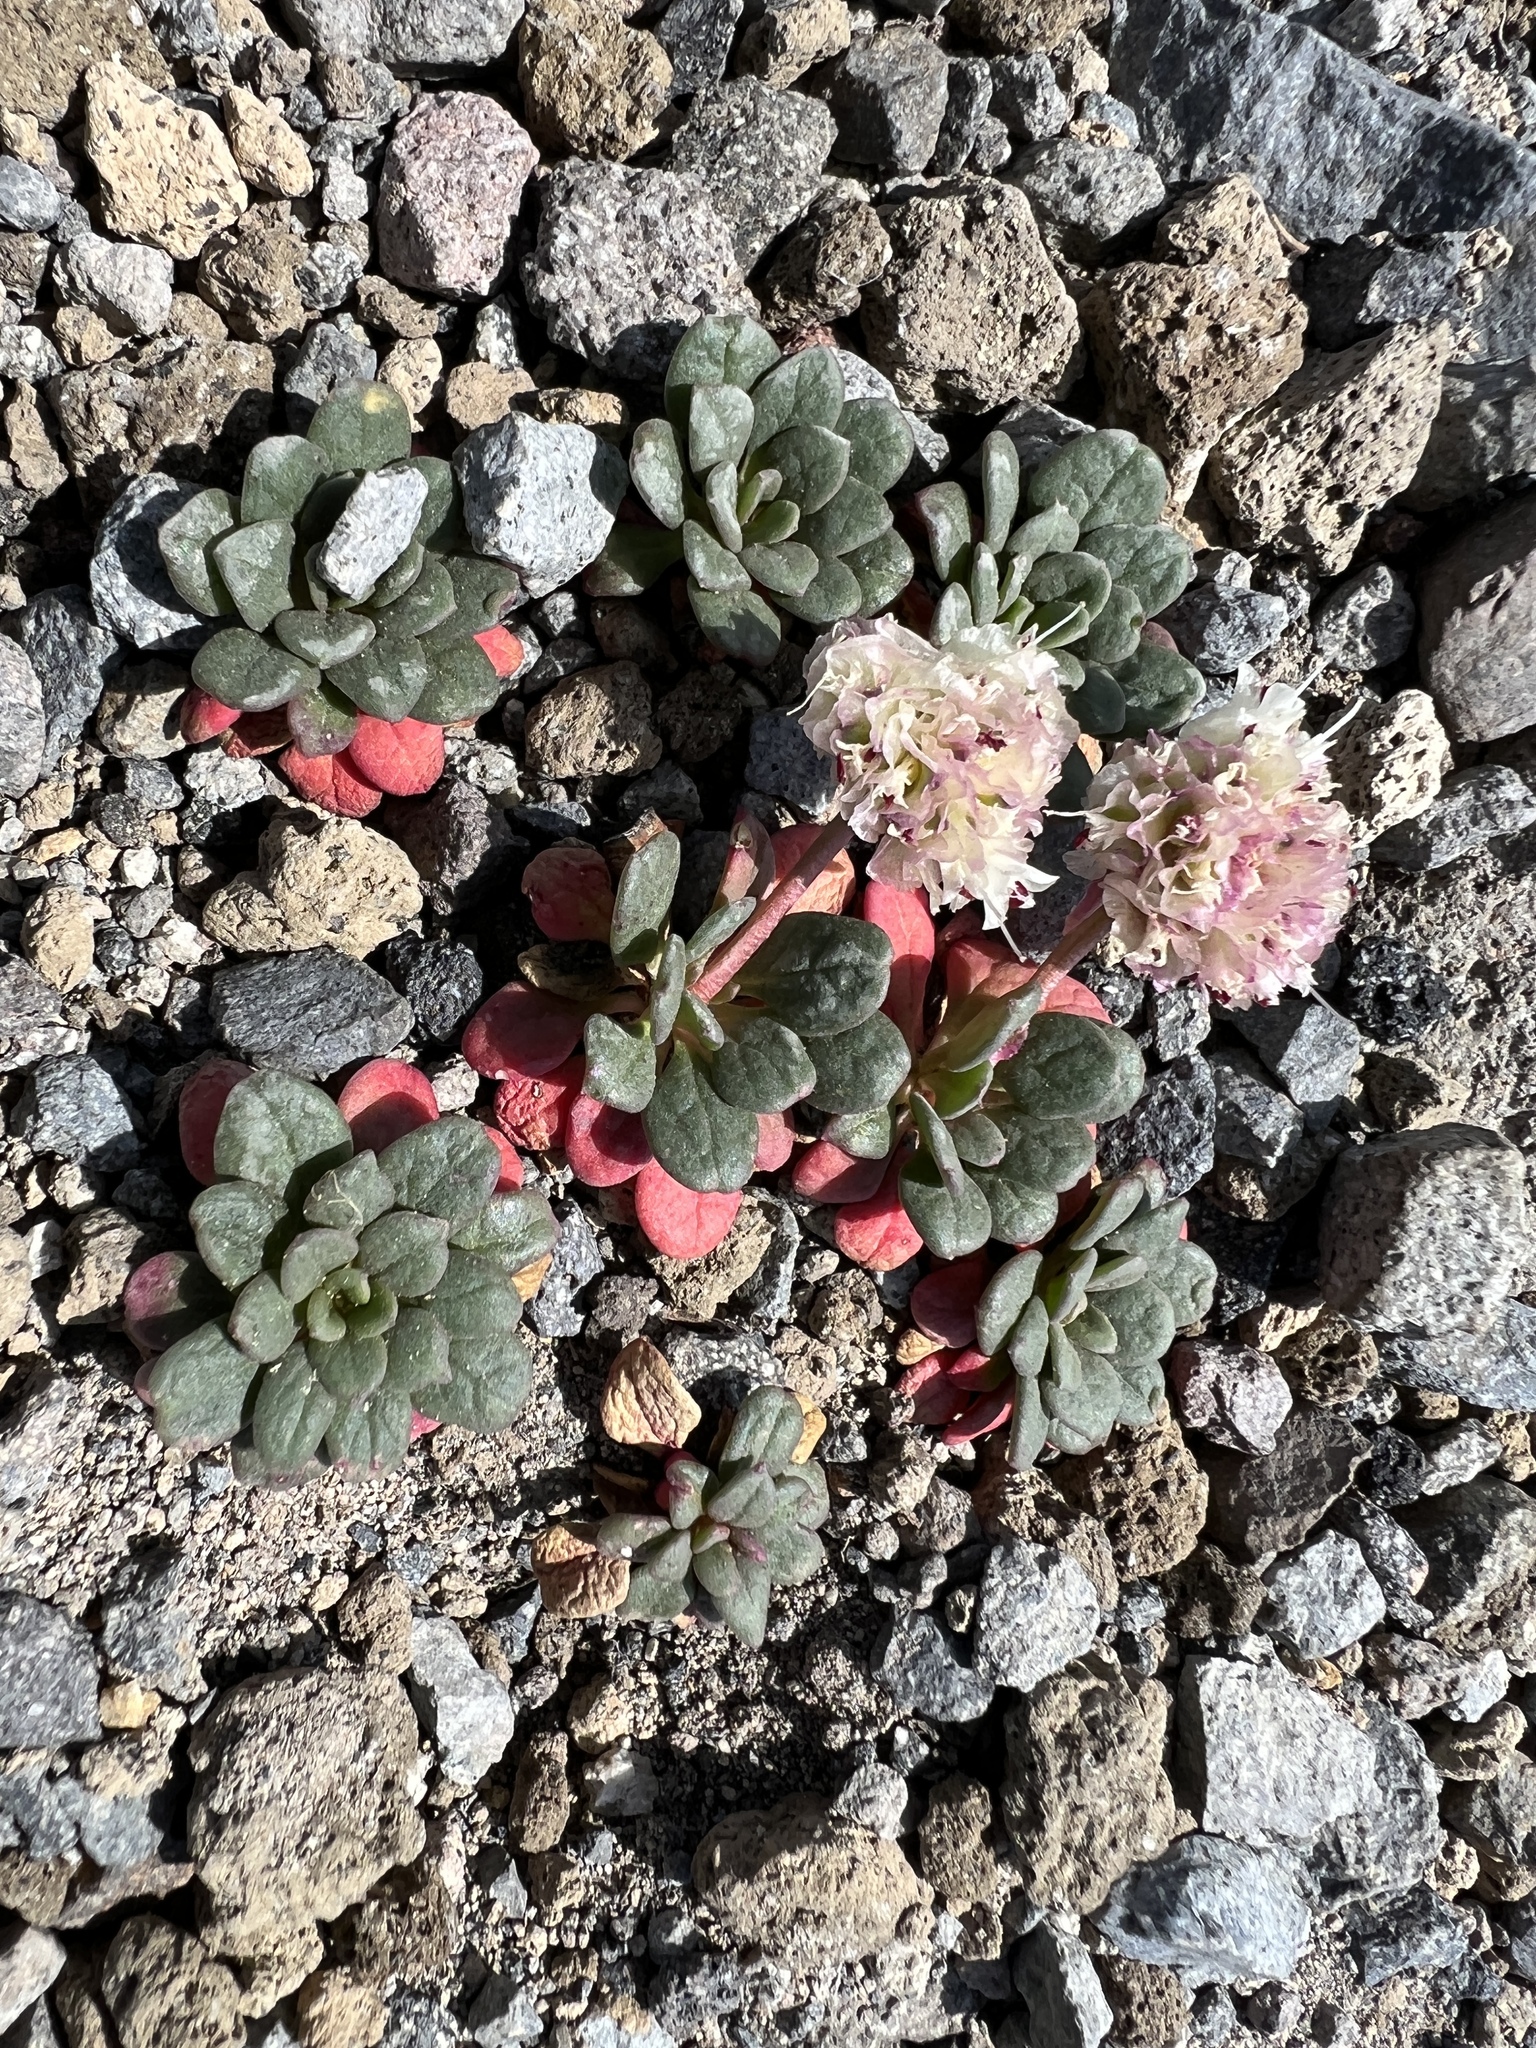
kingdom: Plantae
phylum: Tracheophyta
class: Magnoliopsida
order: Caryophyllales
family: Montiaceae
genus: Calyptridium
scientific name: Calyptridium umbellatum
